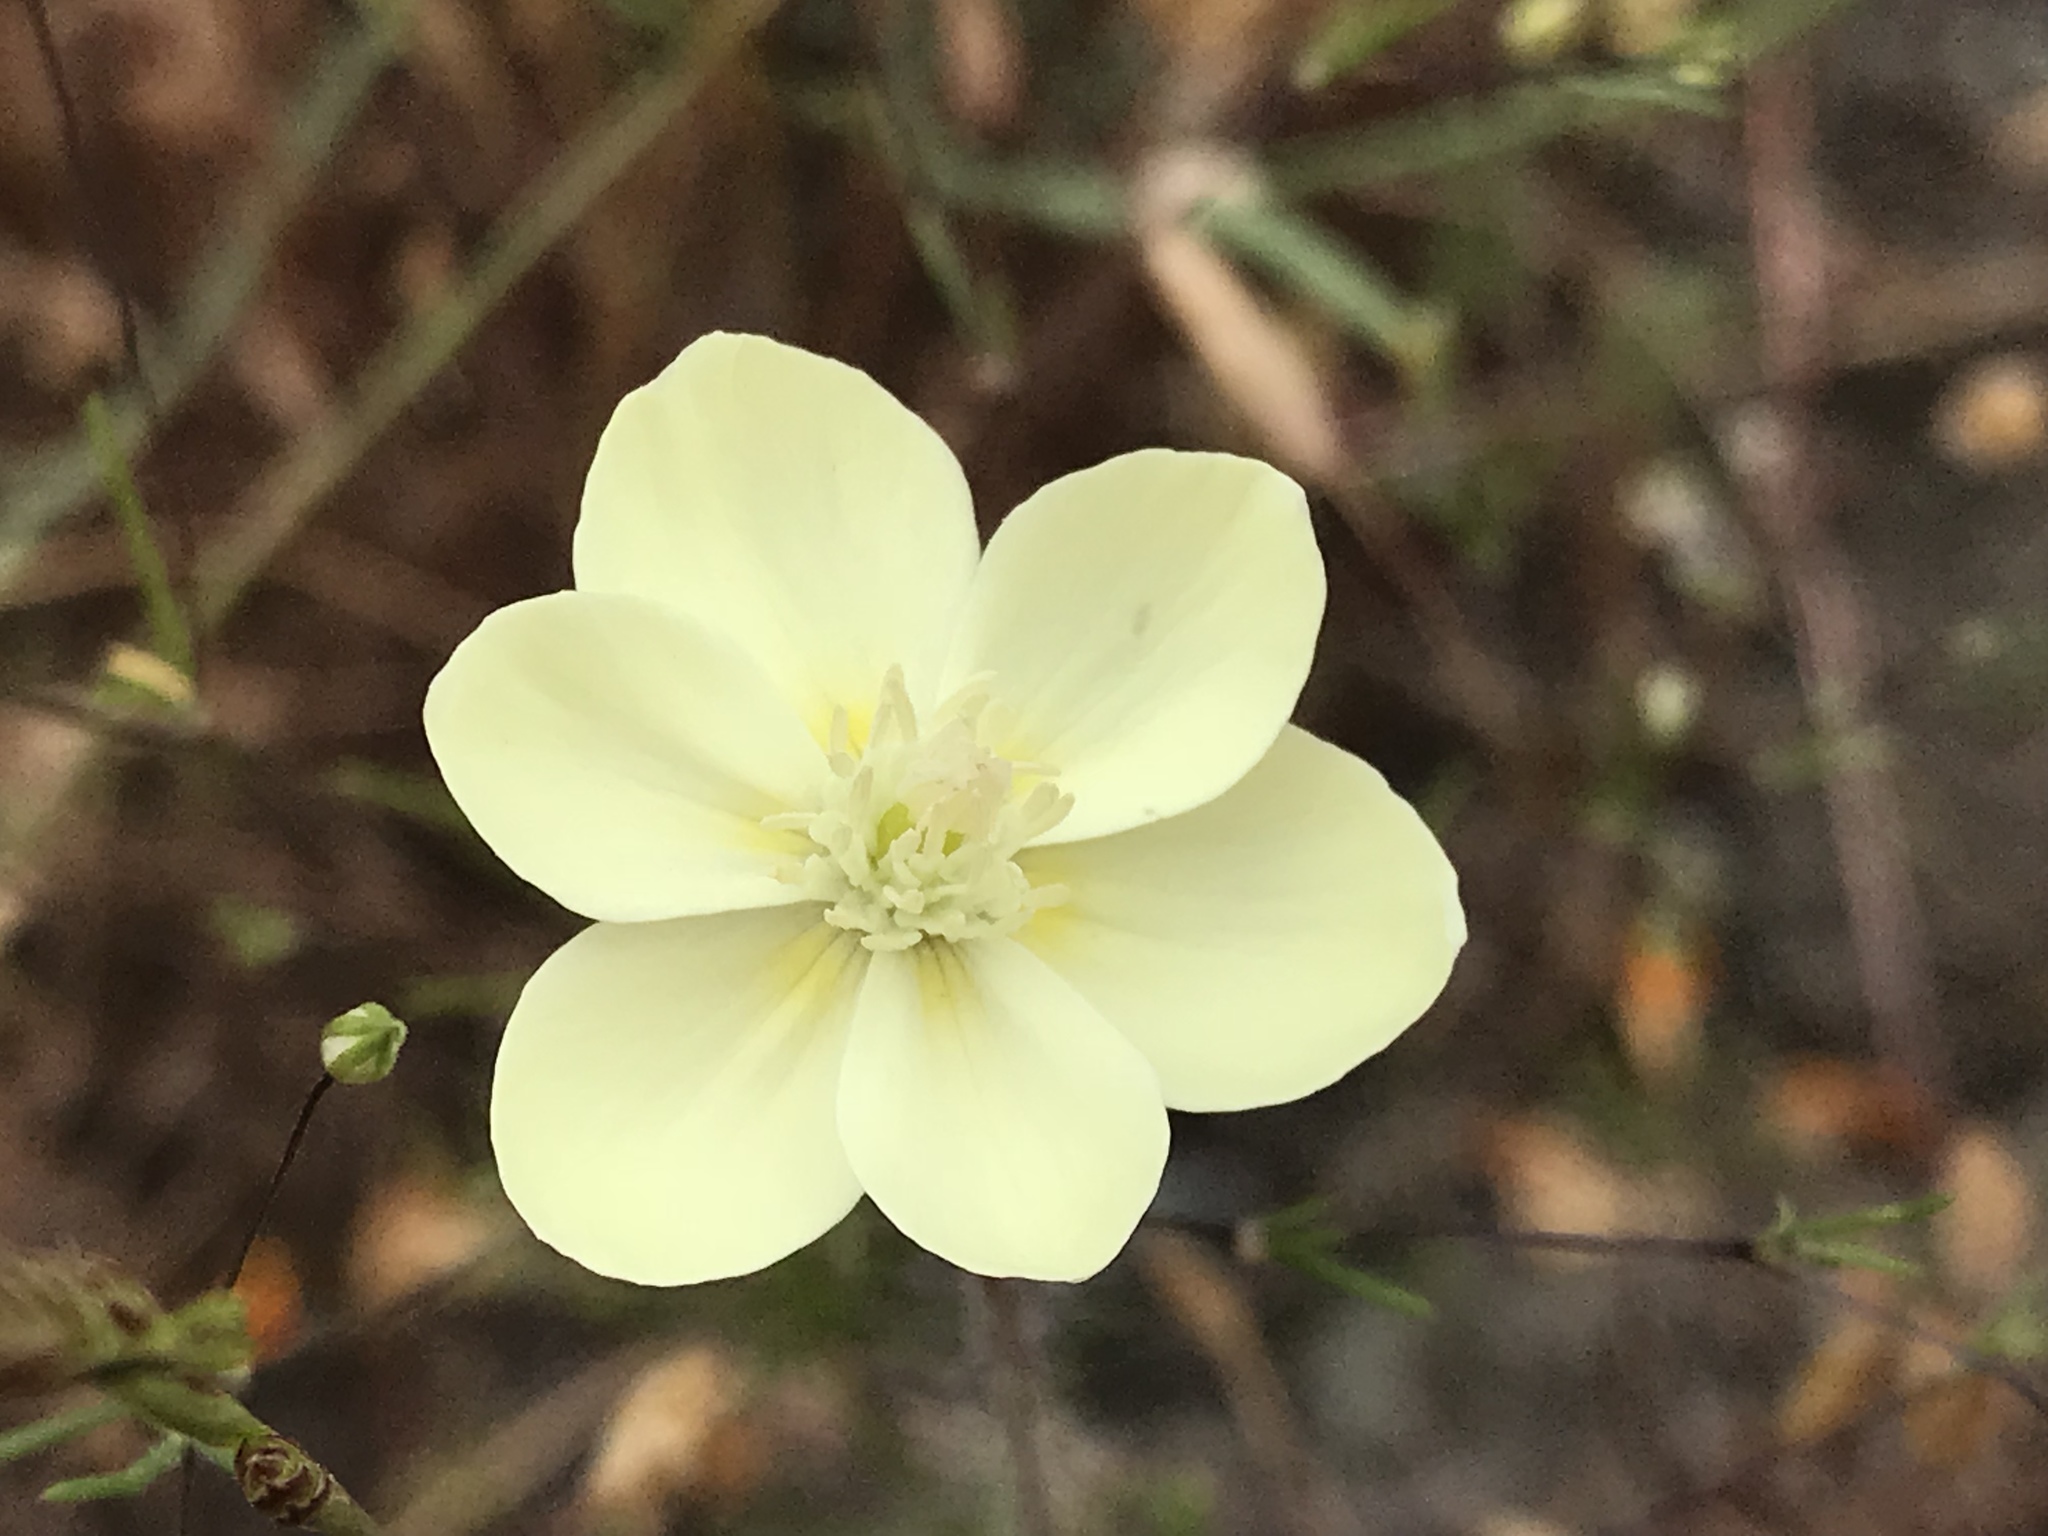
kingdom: Plantae
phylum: Tracheophyta
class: Magnoliopsida
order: Ranunculales
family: Papaveraceae
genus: Platystemon
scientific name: Platystemon californicus
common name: Cream-cups
